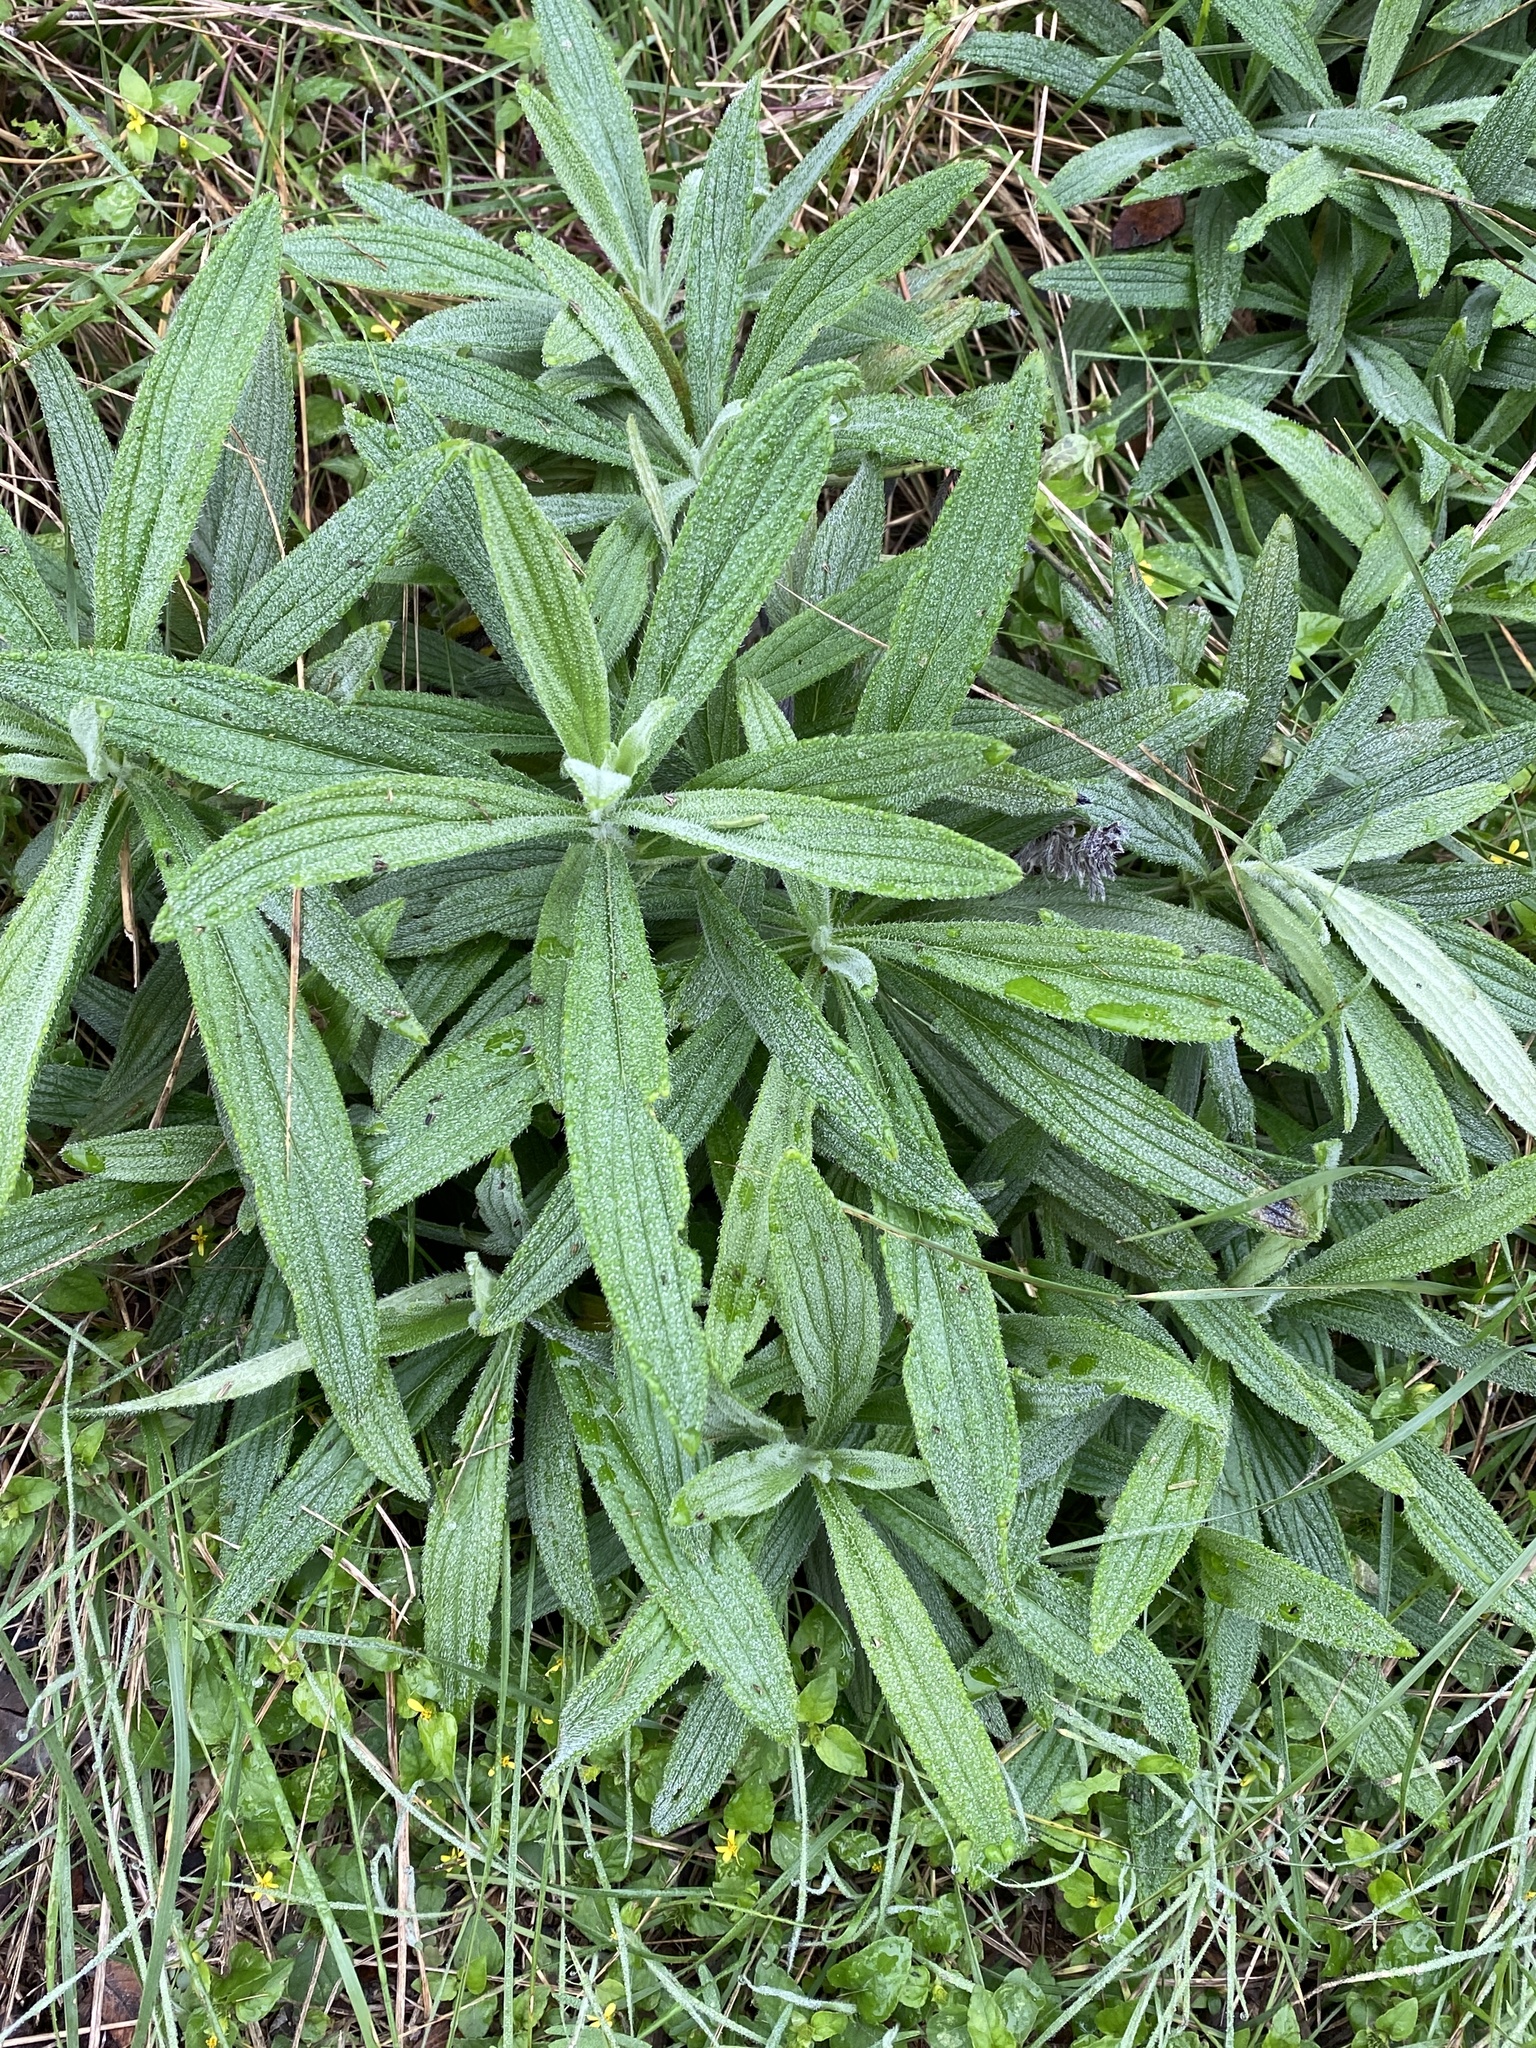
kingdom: Plantae
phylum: Tracheophyta
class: Magnoliopsida
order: Boraginales
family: Boraginaceae
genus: Lithospermum
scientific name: Lithospermum caroliniense
